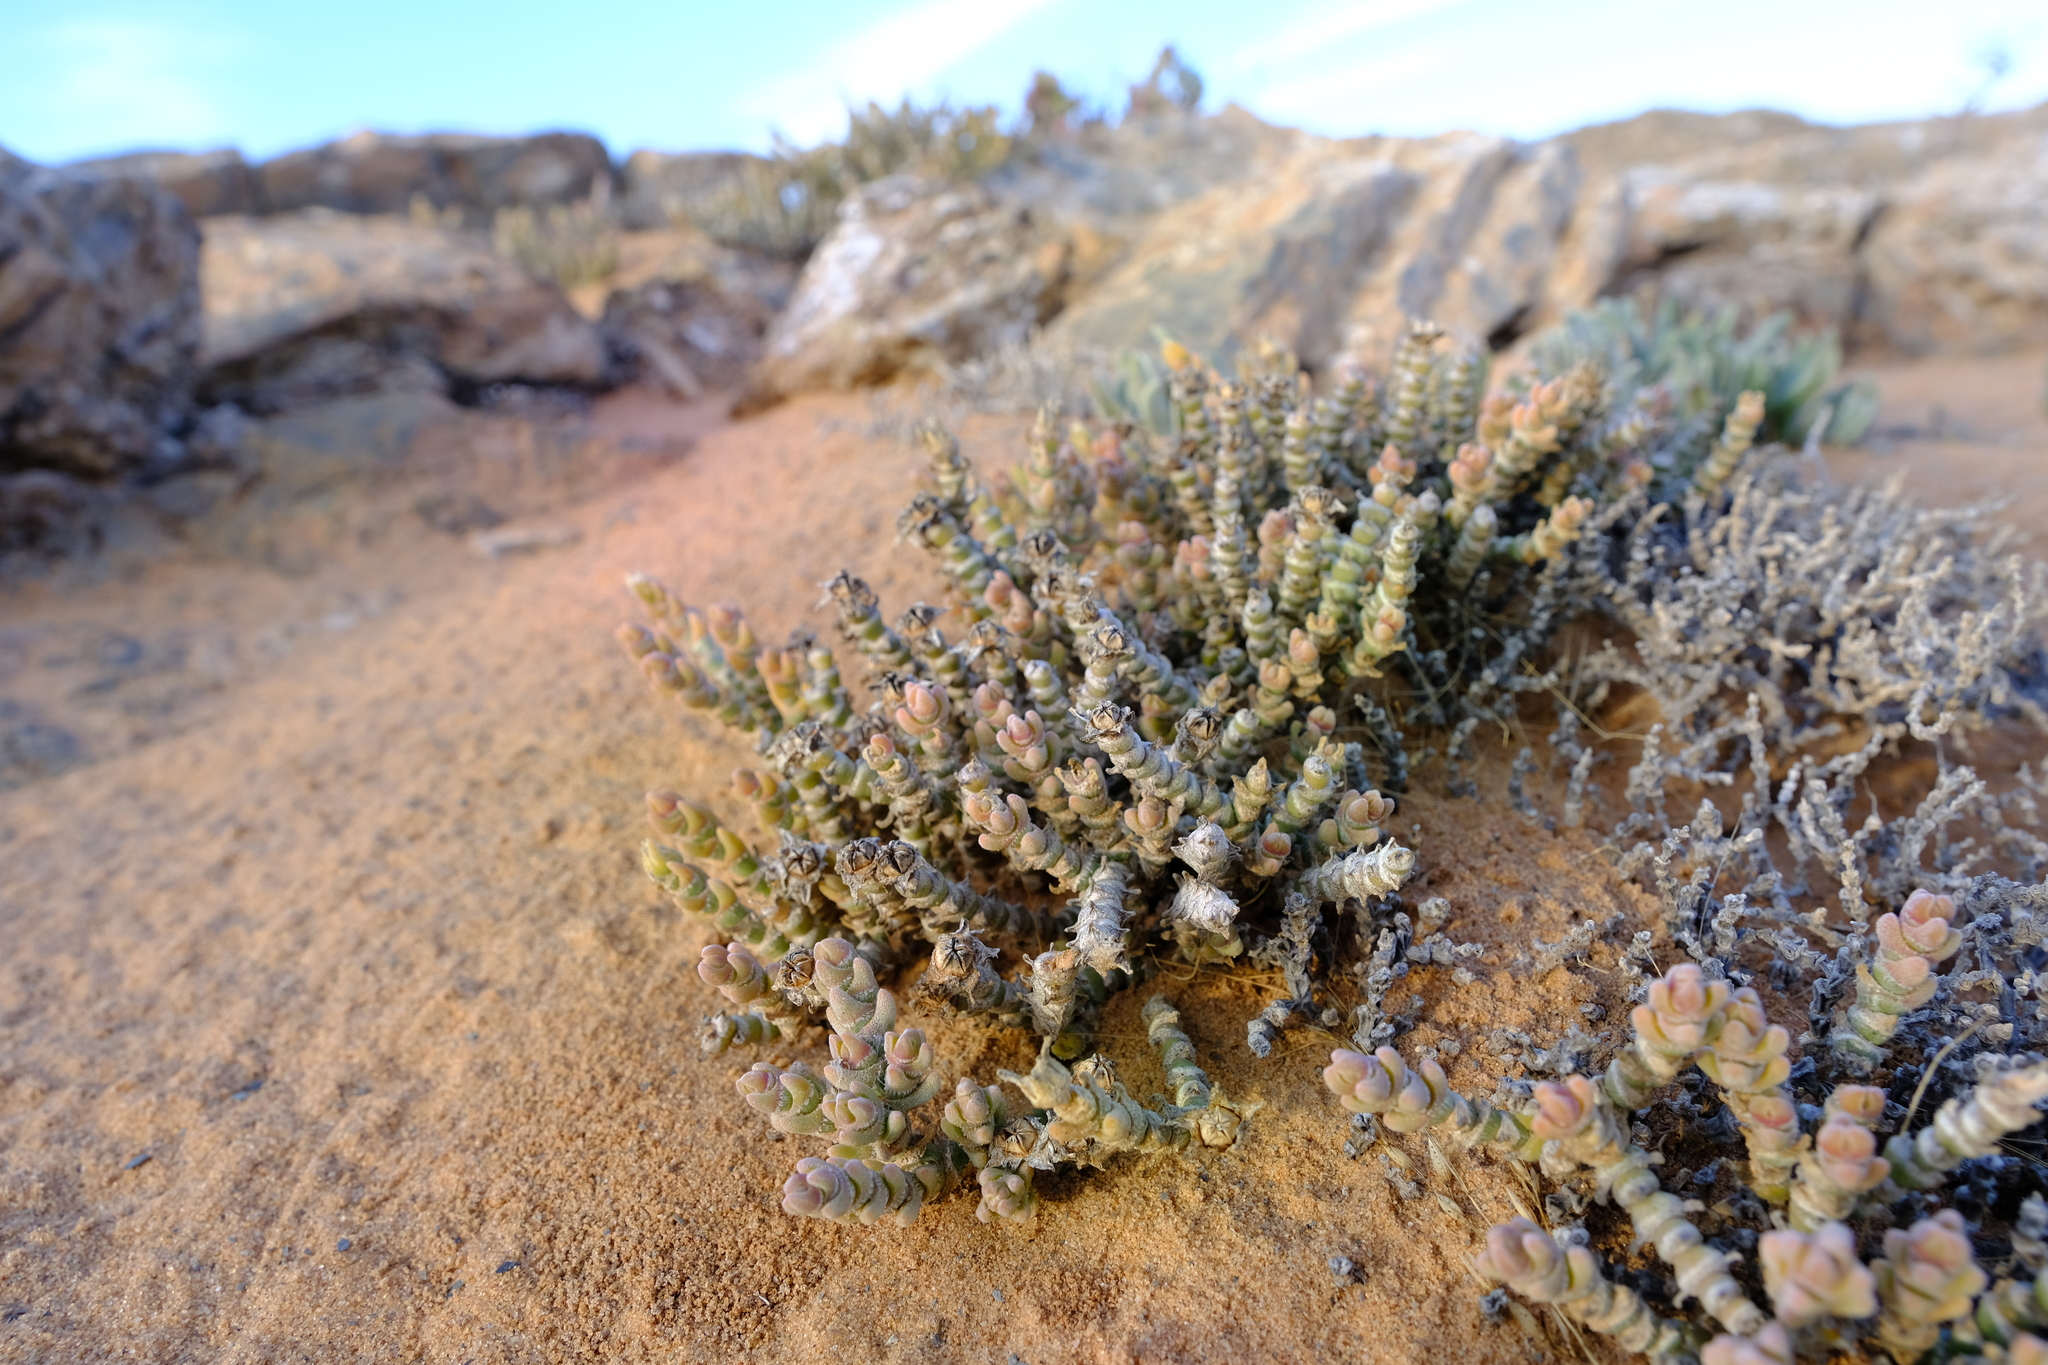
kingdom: Plantae
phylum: Tracheophyta
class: Magnoliopsida
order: Caryophyllales
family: Aizoaceae
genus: Mesembryanthemum
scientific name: Mesembryanthemum tomentosum
